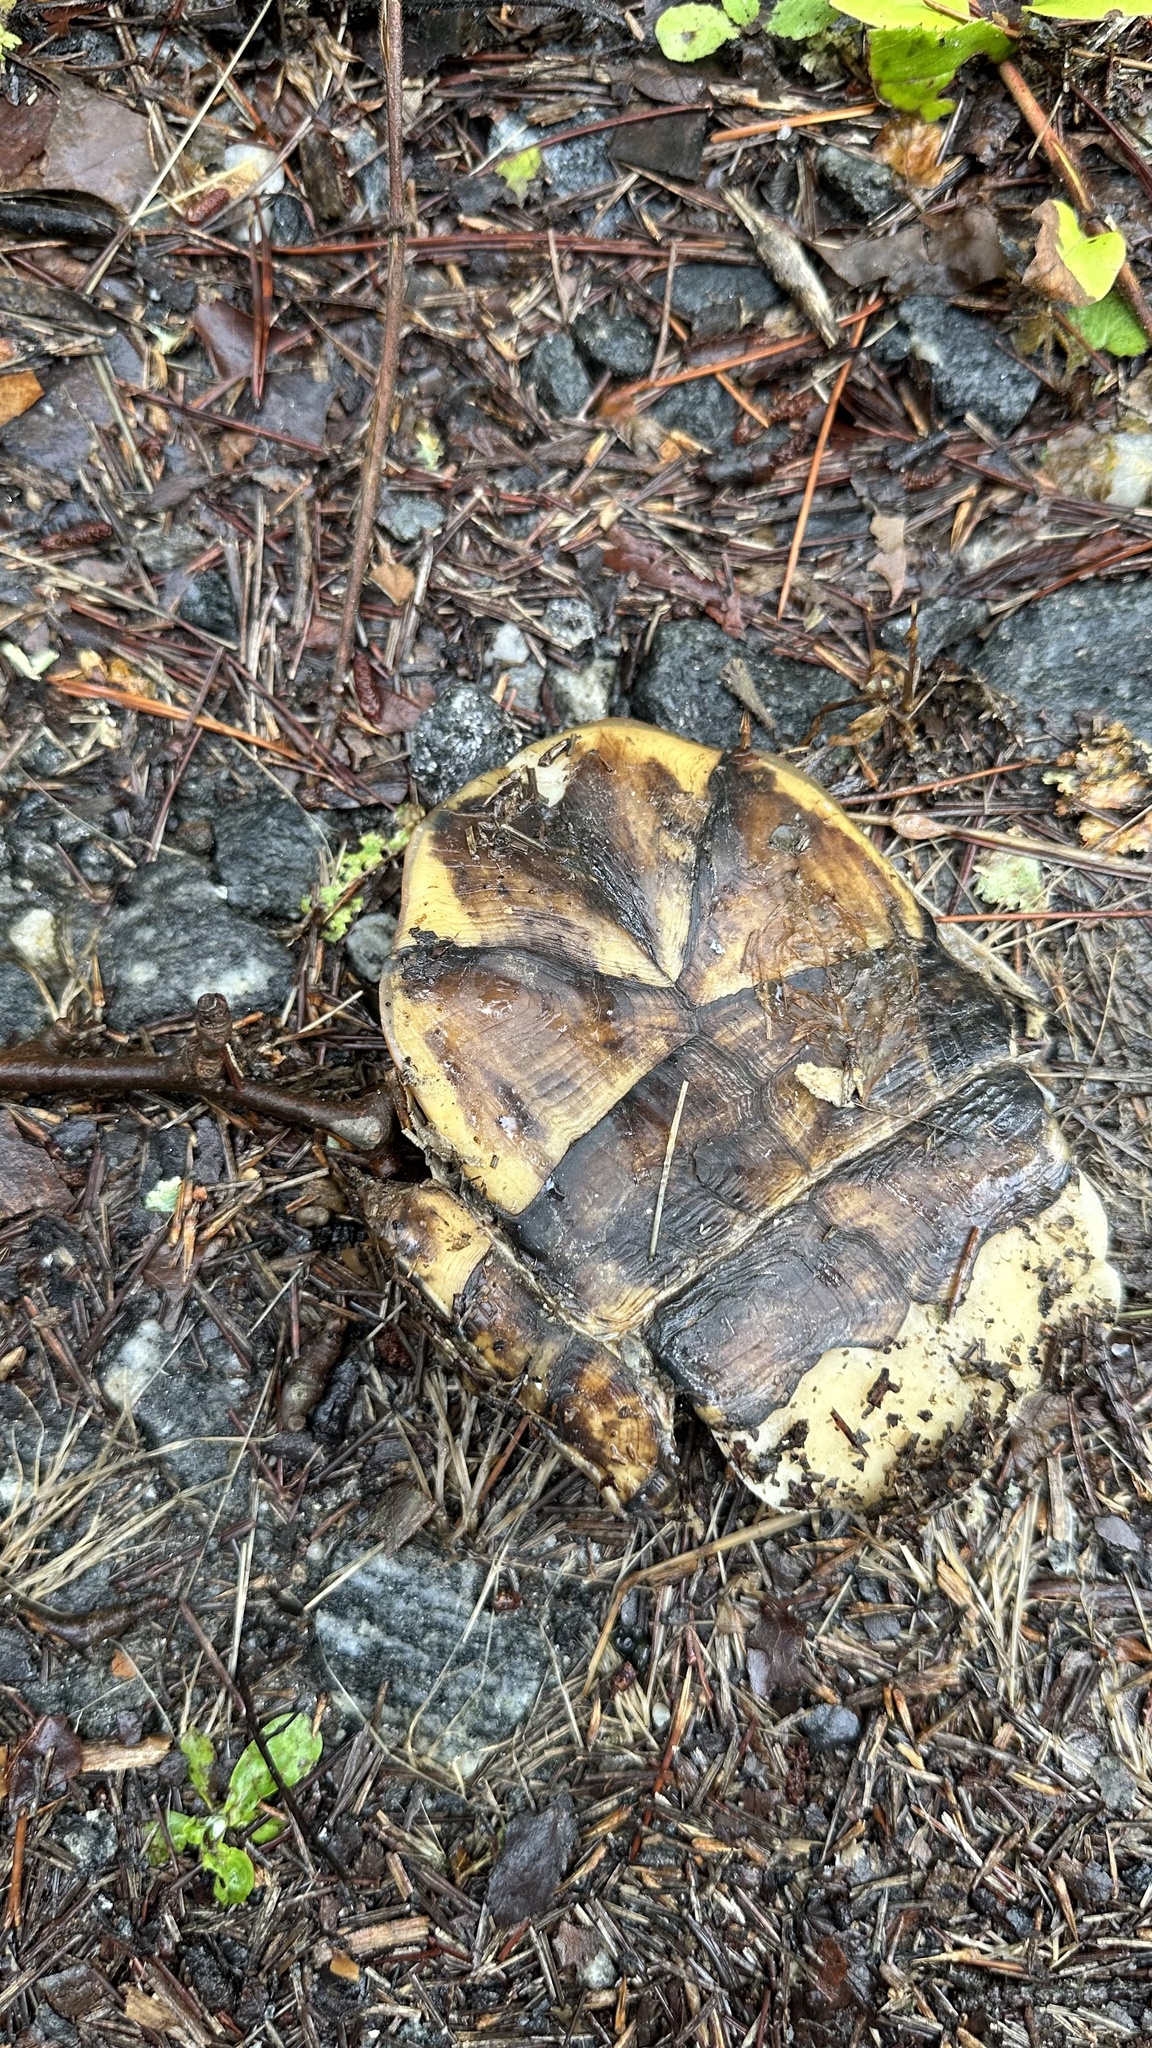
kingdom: Animalia
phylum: Chordata
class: Testudines
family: Emydidae
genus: Terrapene
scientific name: Terrapene carolina
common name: Common box turtle
